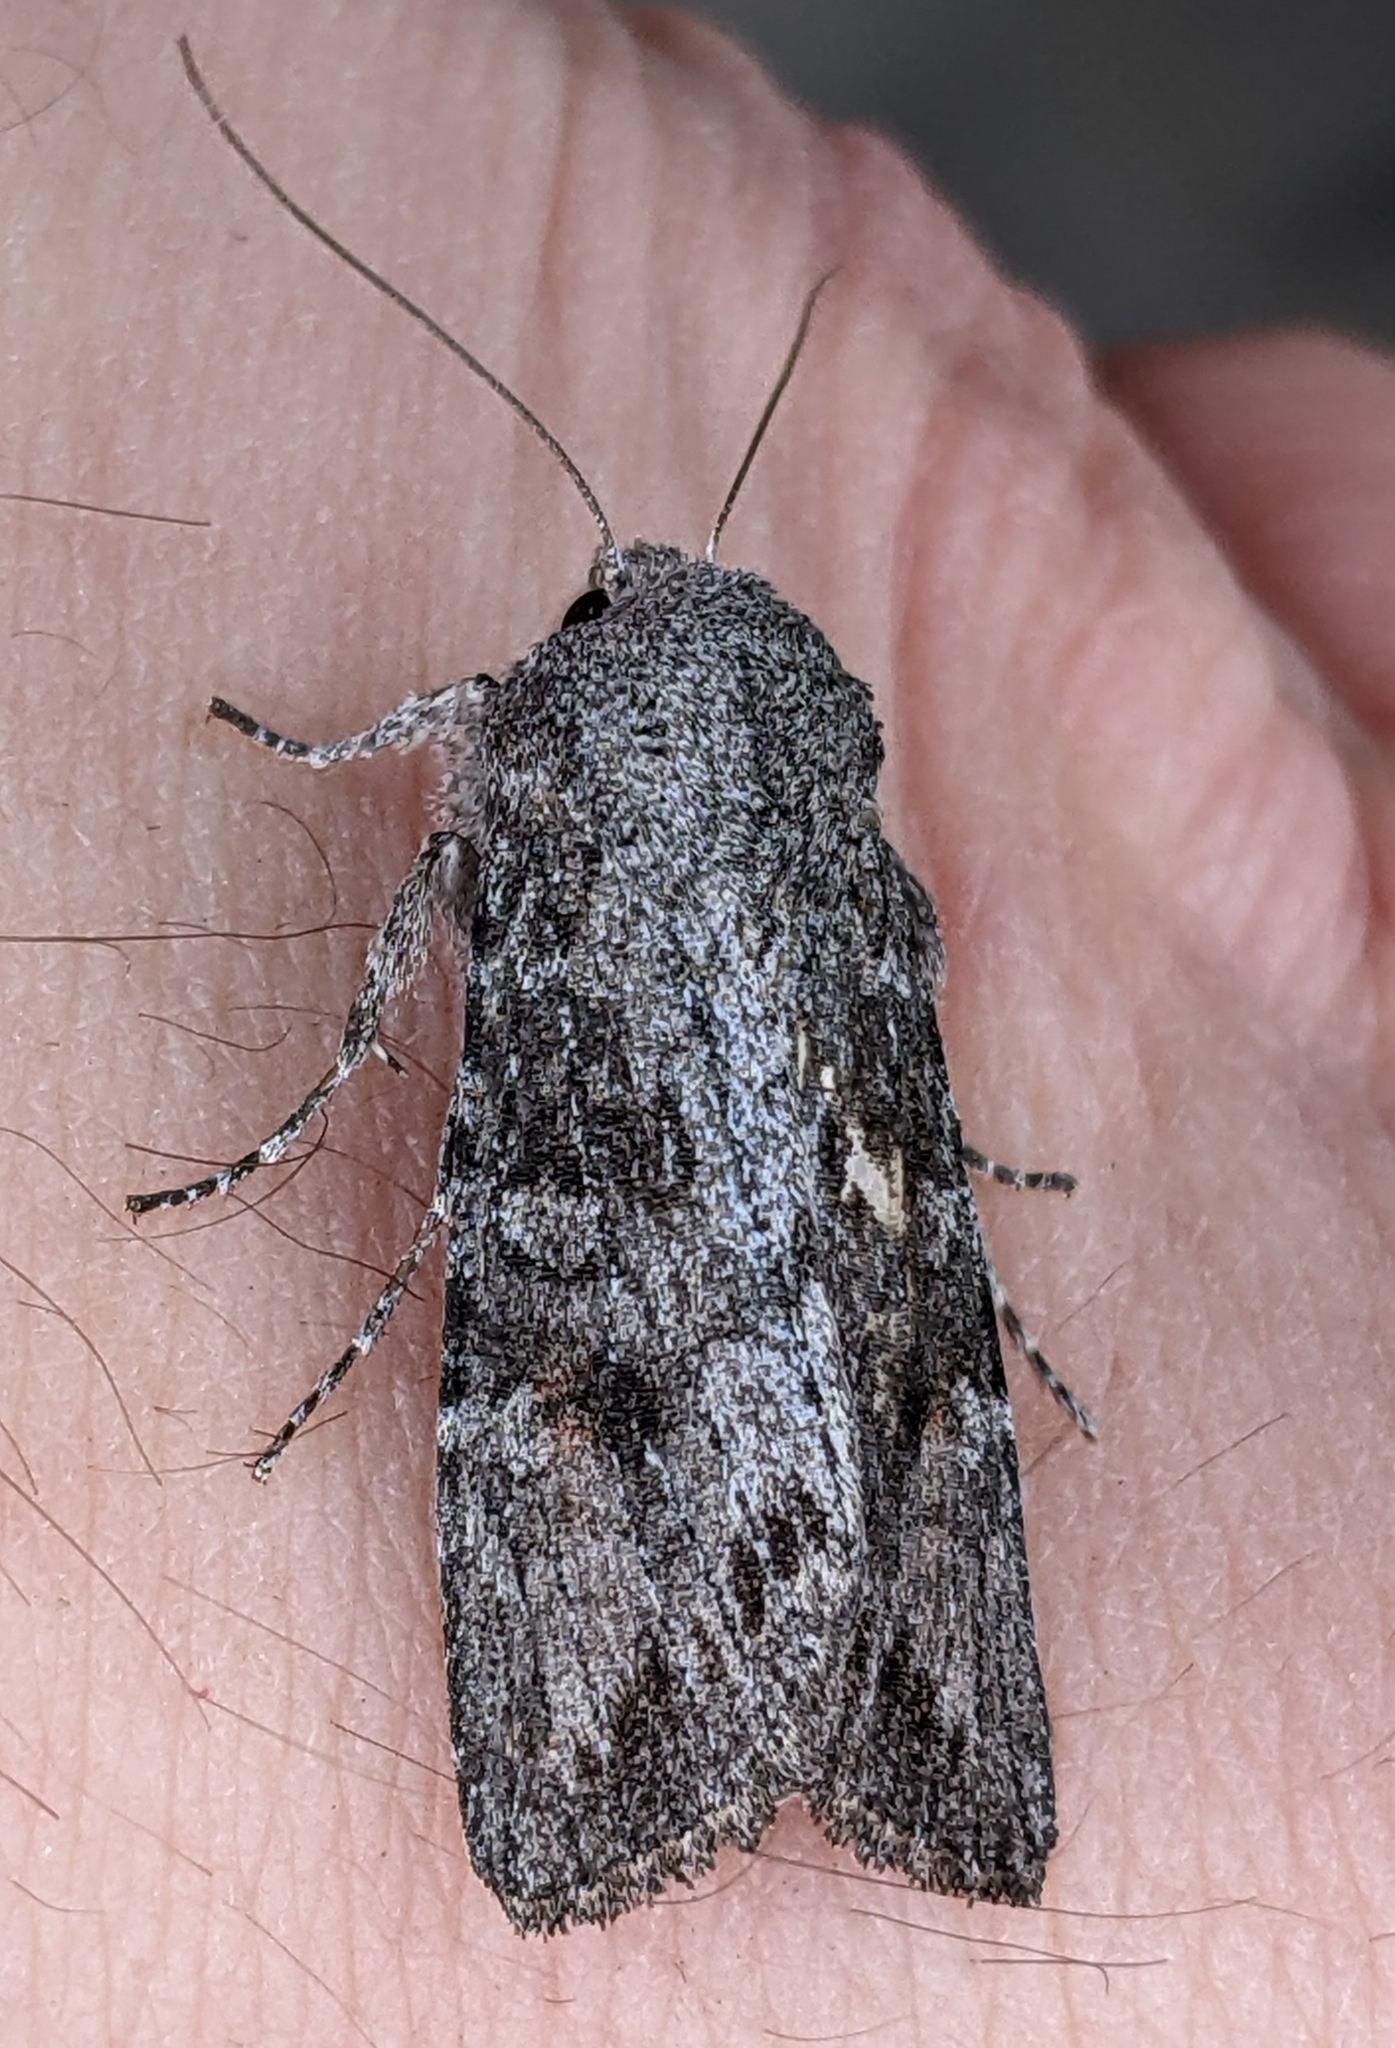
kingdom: Animalia
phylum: Arthropoda
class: Insecta
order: Lepidoptera
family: Noctuidae
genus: Egira
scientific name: Egira curialis
